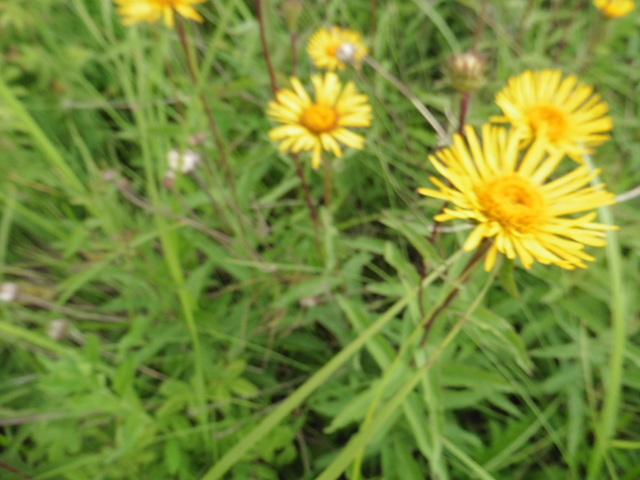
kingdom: Plantae
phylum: Tracheophyta
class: Magnoliopsida
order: Asterales
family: Asteraceae
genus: Pentanema
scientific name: Pentanema hirtum
